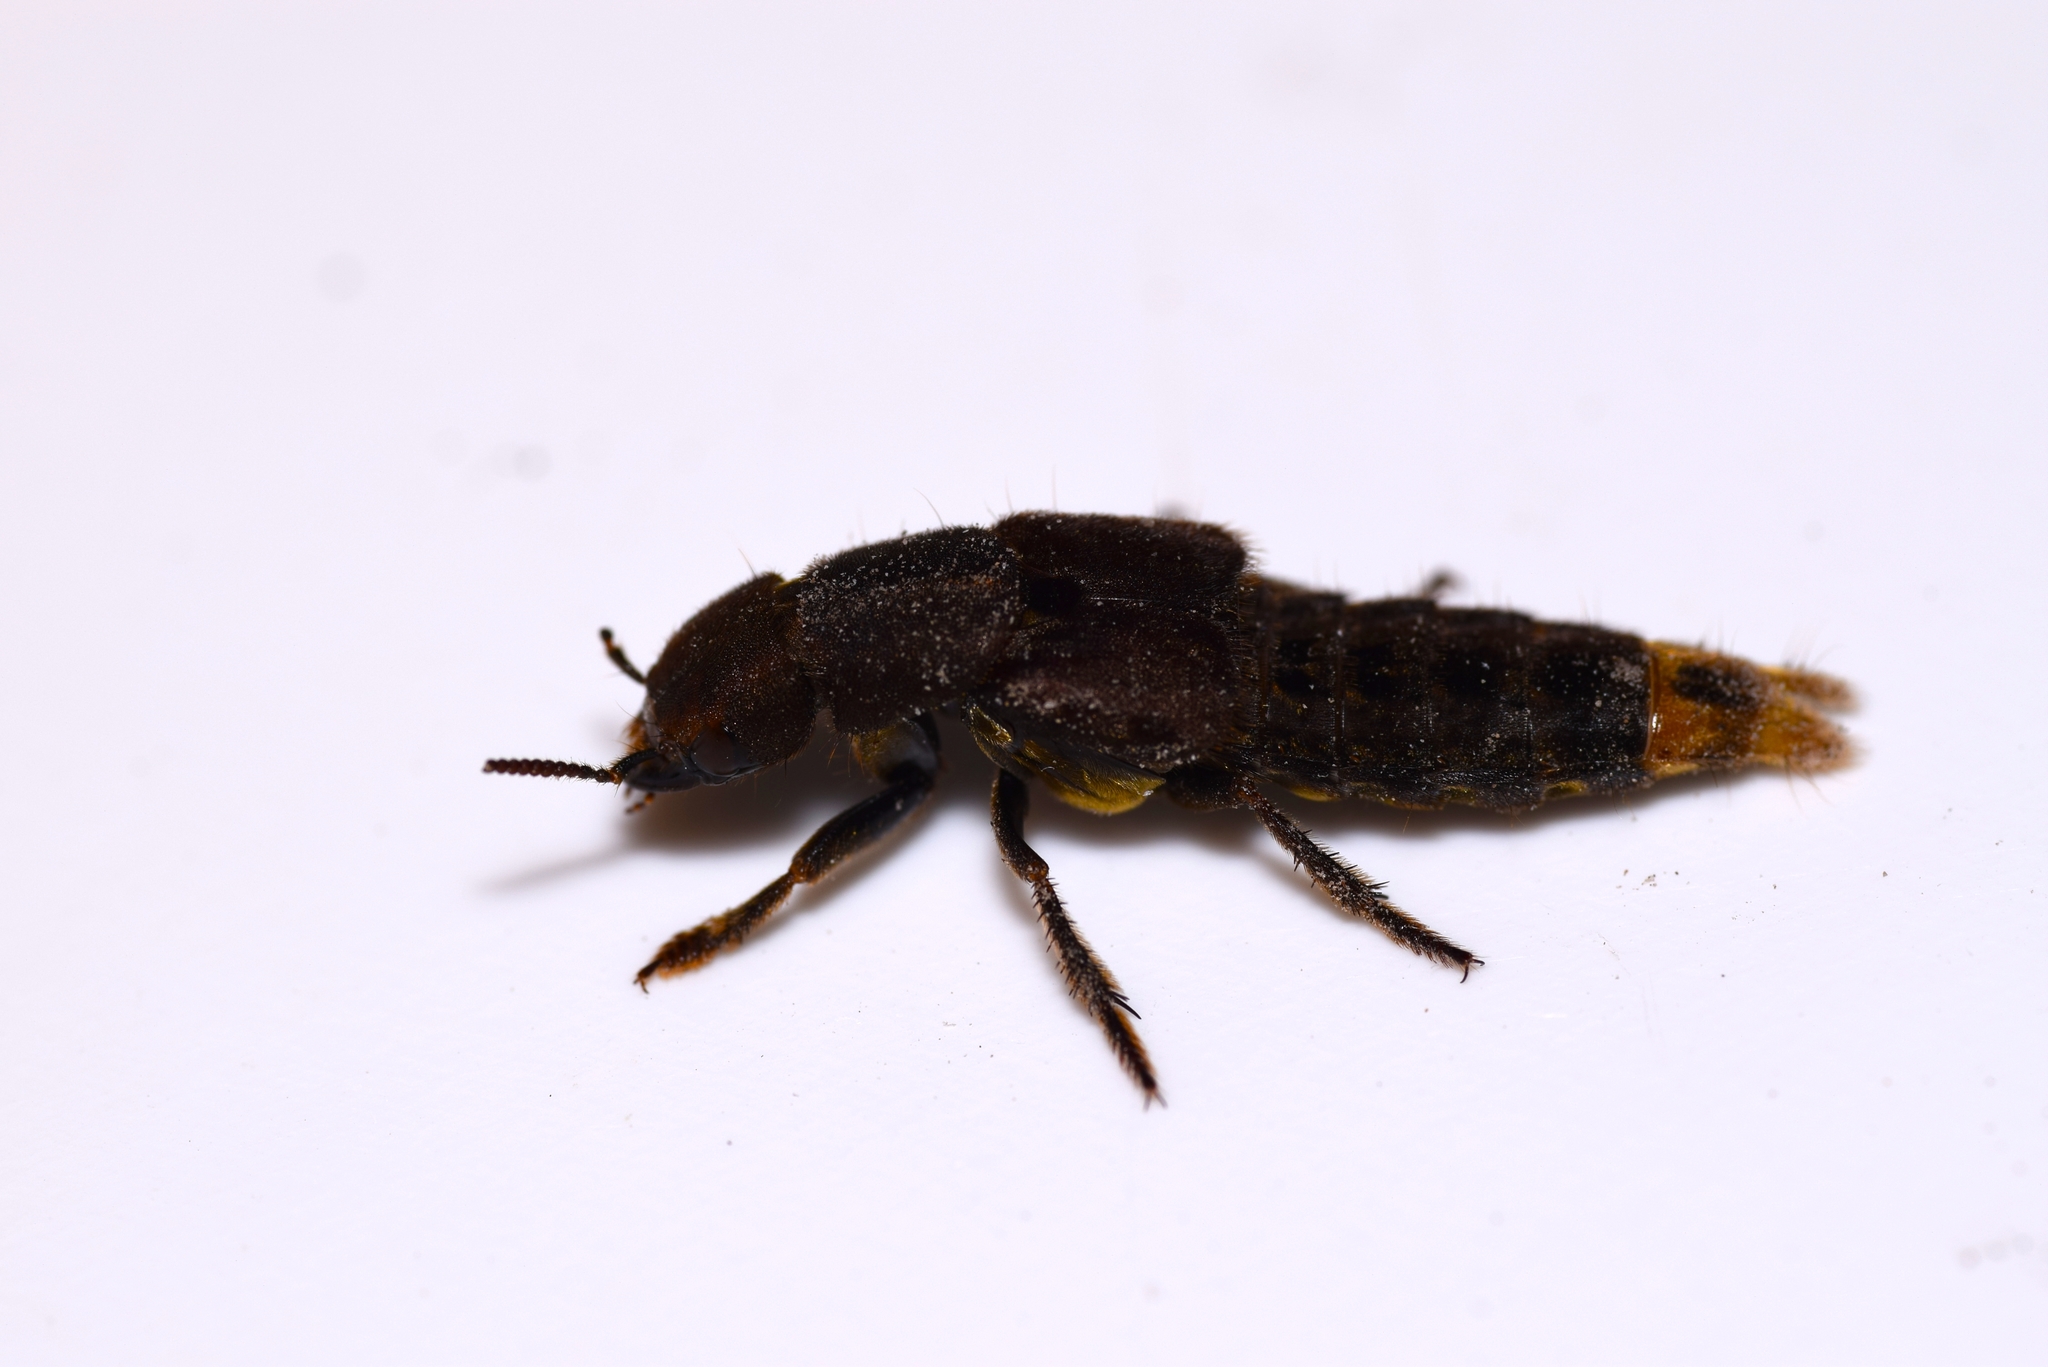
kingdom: Animalia
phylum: Arthropoda
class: Insecta
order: Coleoptera
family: Staphylinidae
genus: Platydracus
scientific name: Platydracus maculosus
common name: Brown rove beetle
